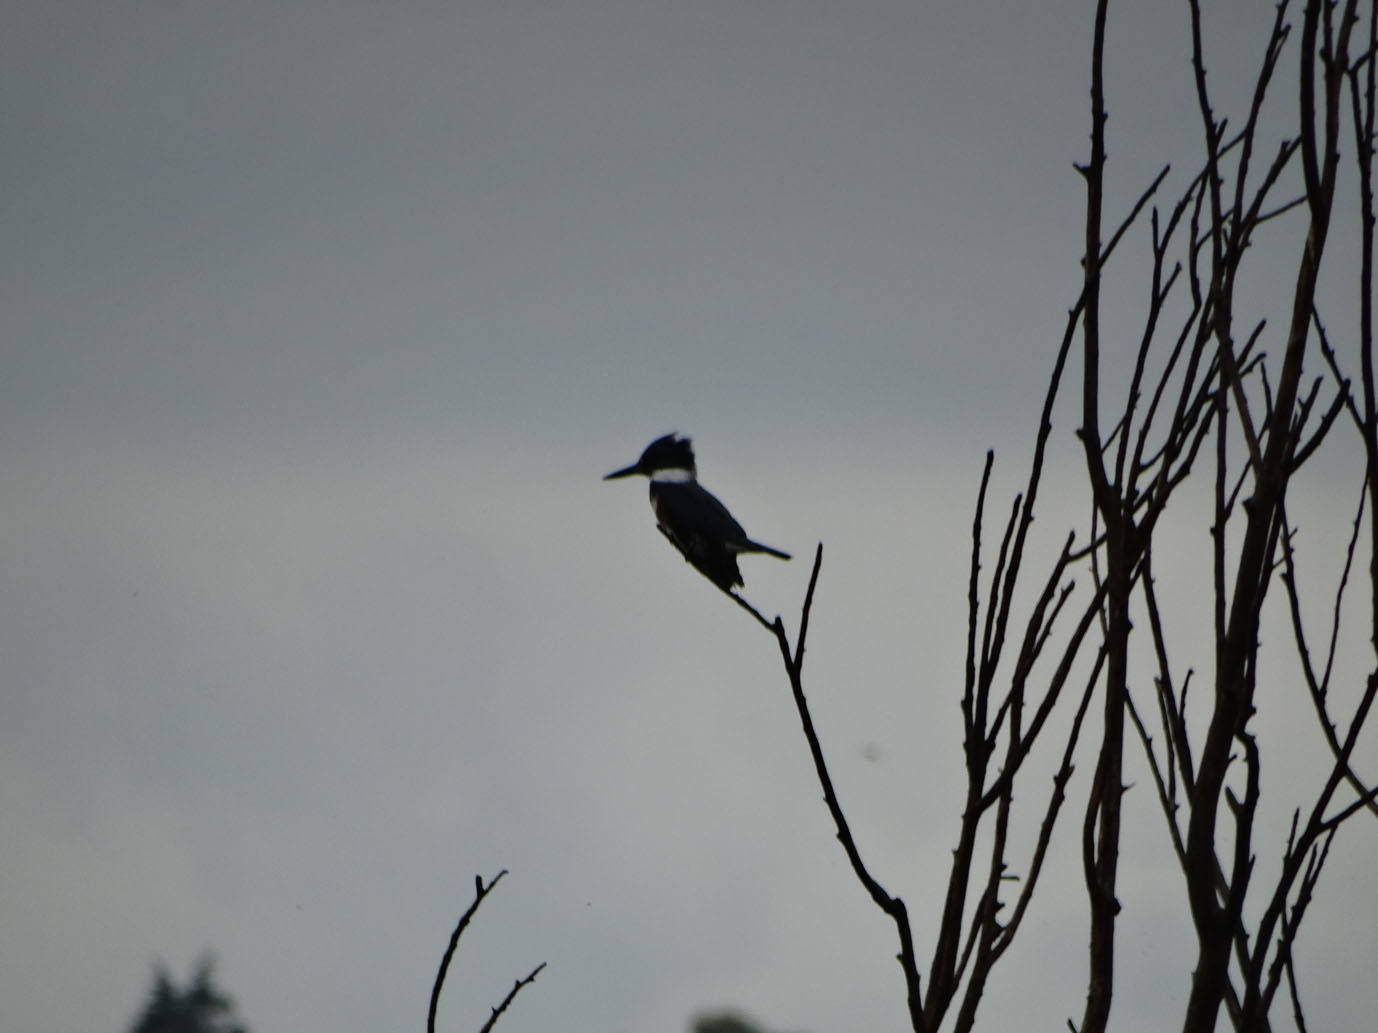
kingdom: Animalia
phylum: Chordata
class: Aves
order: Coraciiformes
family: Alcedinidae
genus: Megaceryle
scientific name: Megaceryle alcyon
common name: Belted kingfisher
